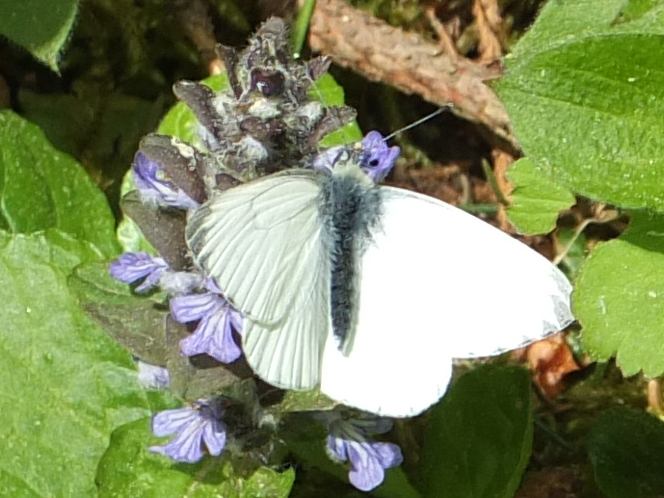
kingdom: Animalia
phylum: Arthropoda
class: Insecta
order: Lepidoptera
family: Pieridae
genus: Pieris
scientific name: Pieris napi
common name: Green-veined white
